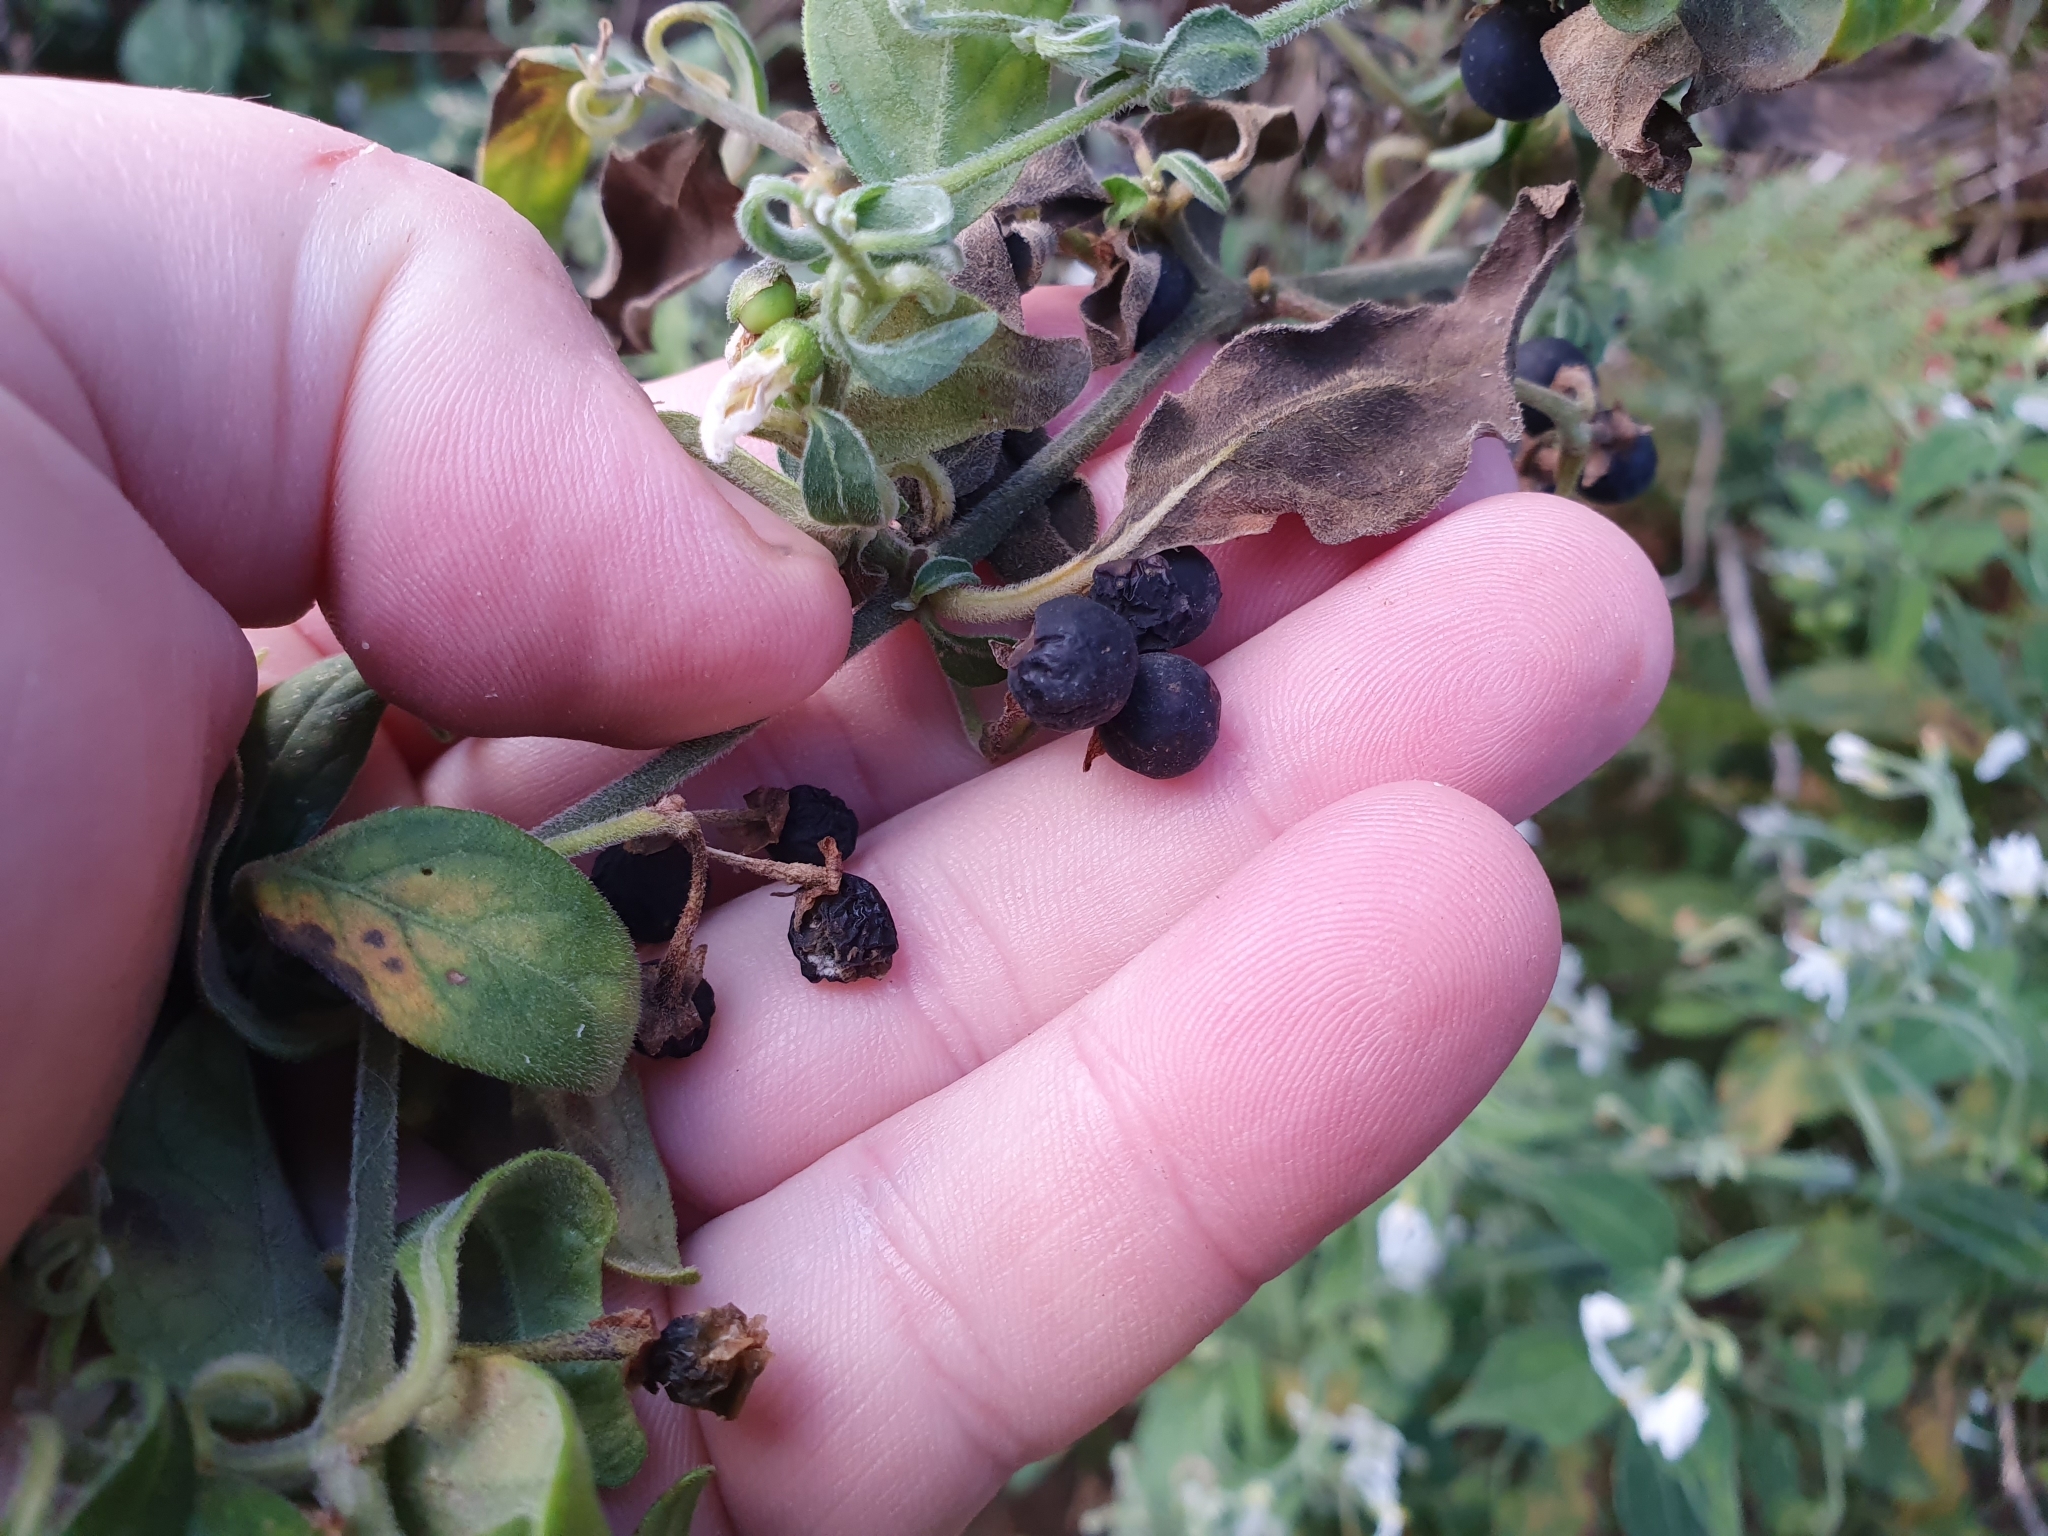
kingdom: Plantae
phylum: Tracheophyta
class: Magnoliopsida
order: Solanales
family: Solanaceae
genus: Solanum
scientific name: Solanum chenopodioides
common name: Tall nightshade
